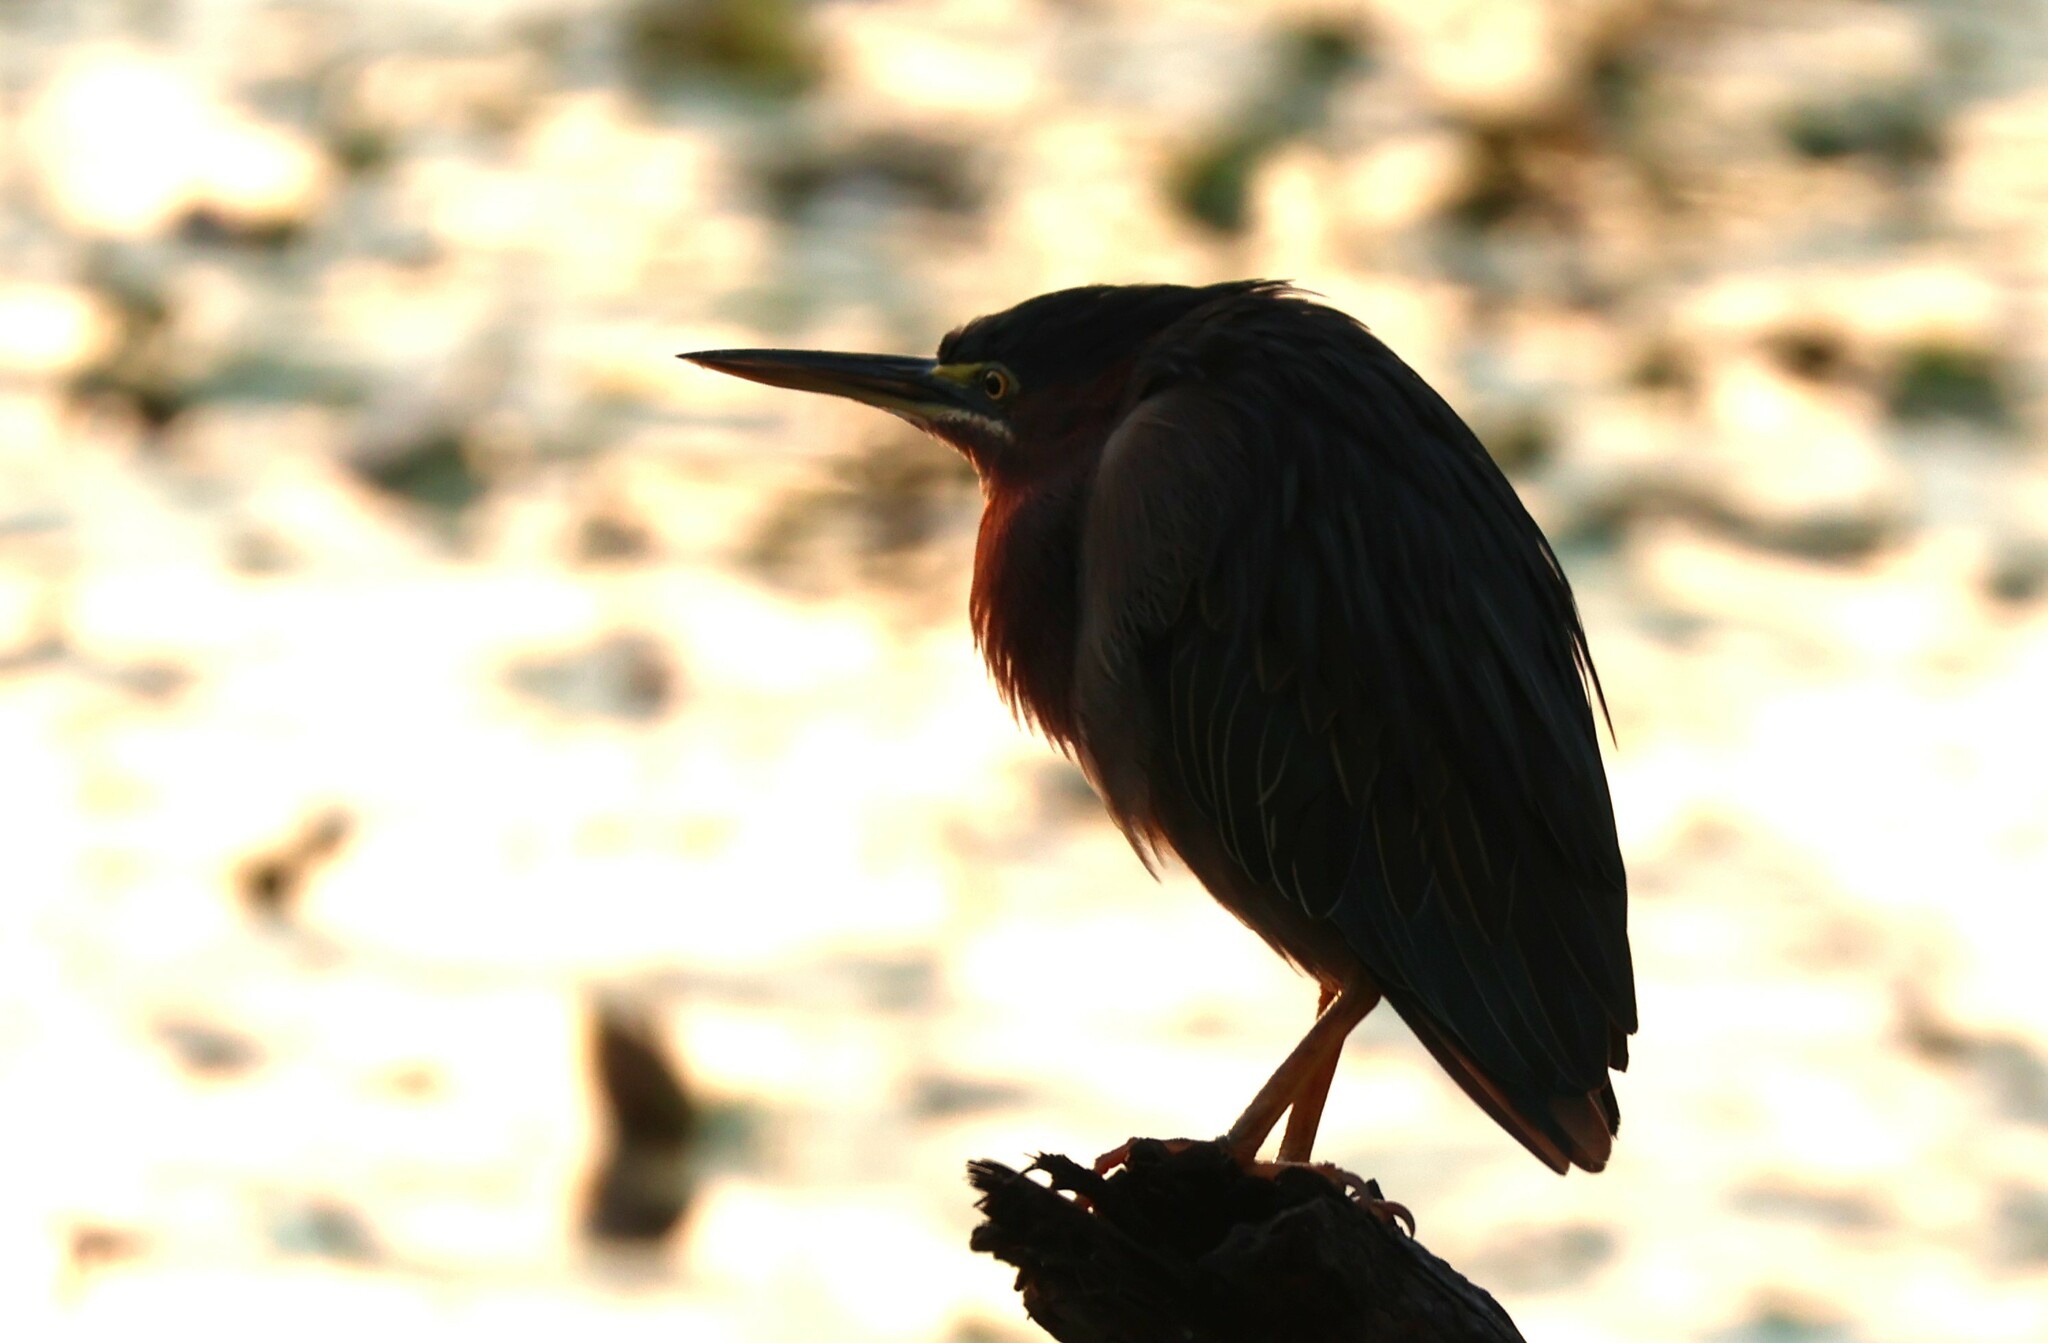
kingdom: Animalia
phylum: Chordata
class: Aves
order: Pelecaniformes
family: Ardeidae
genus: Butorides
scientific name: Butorides virescens
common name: Green heron
